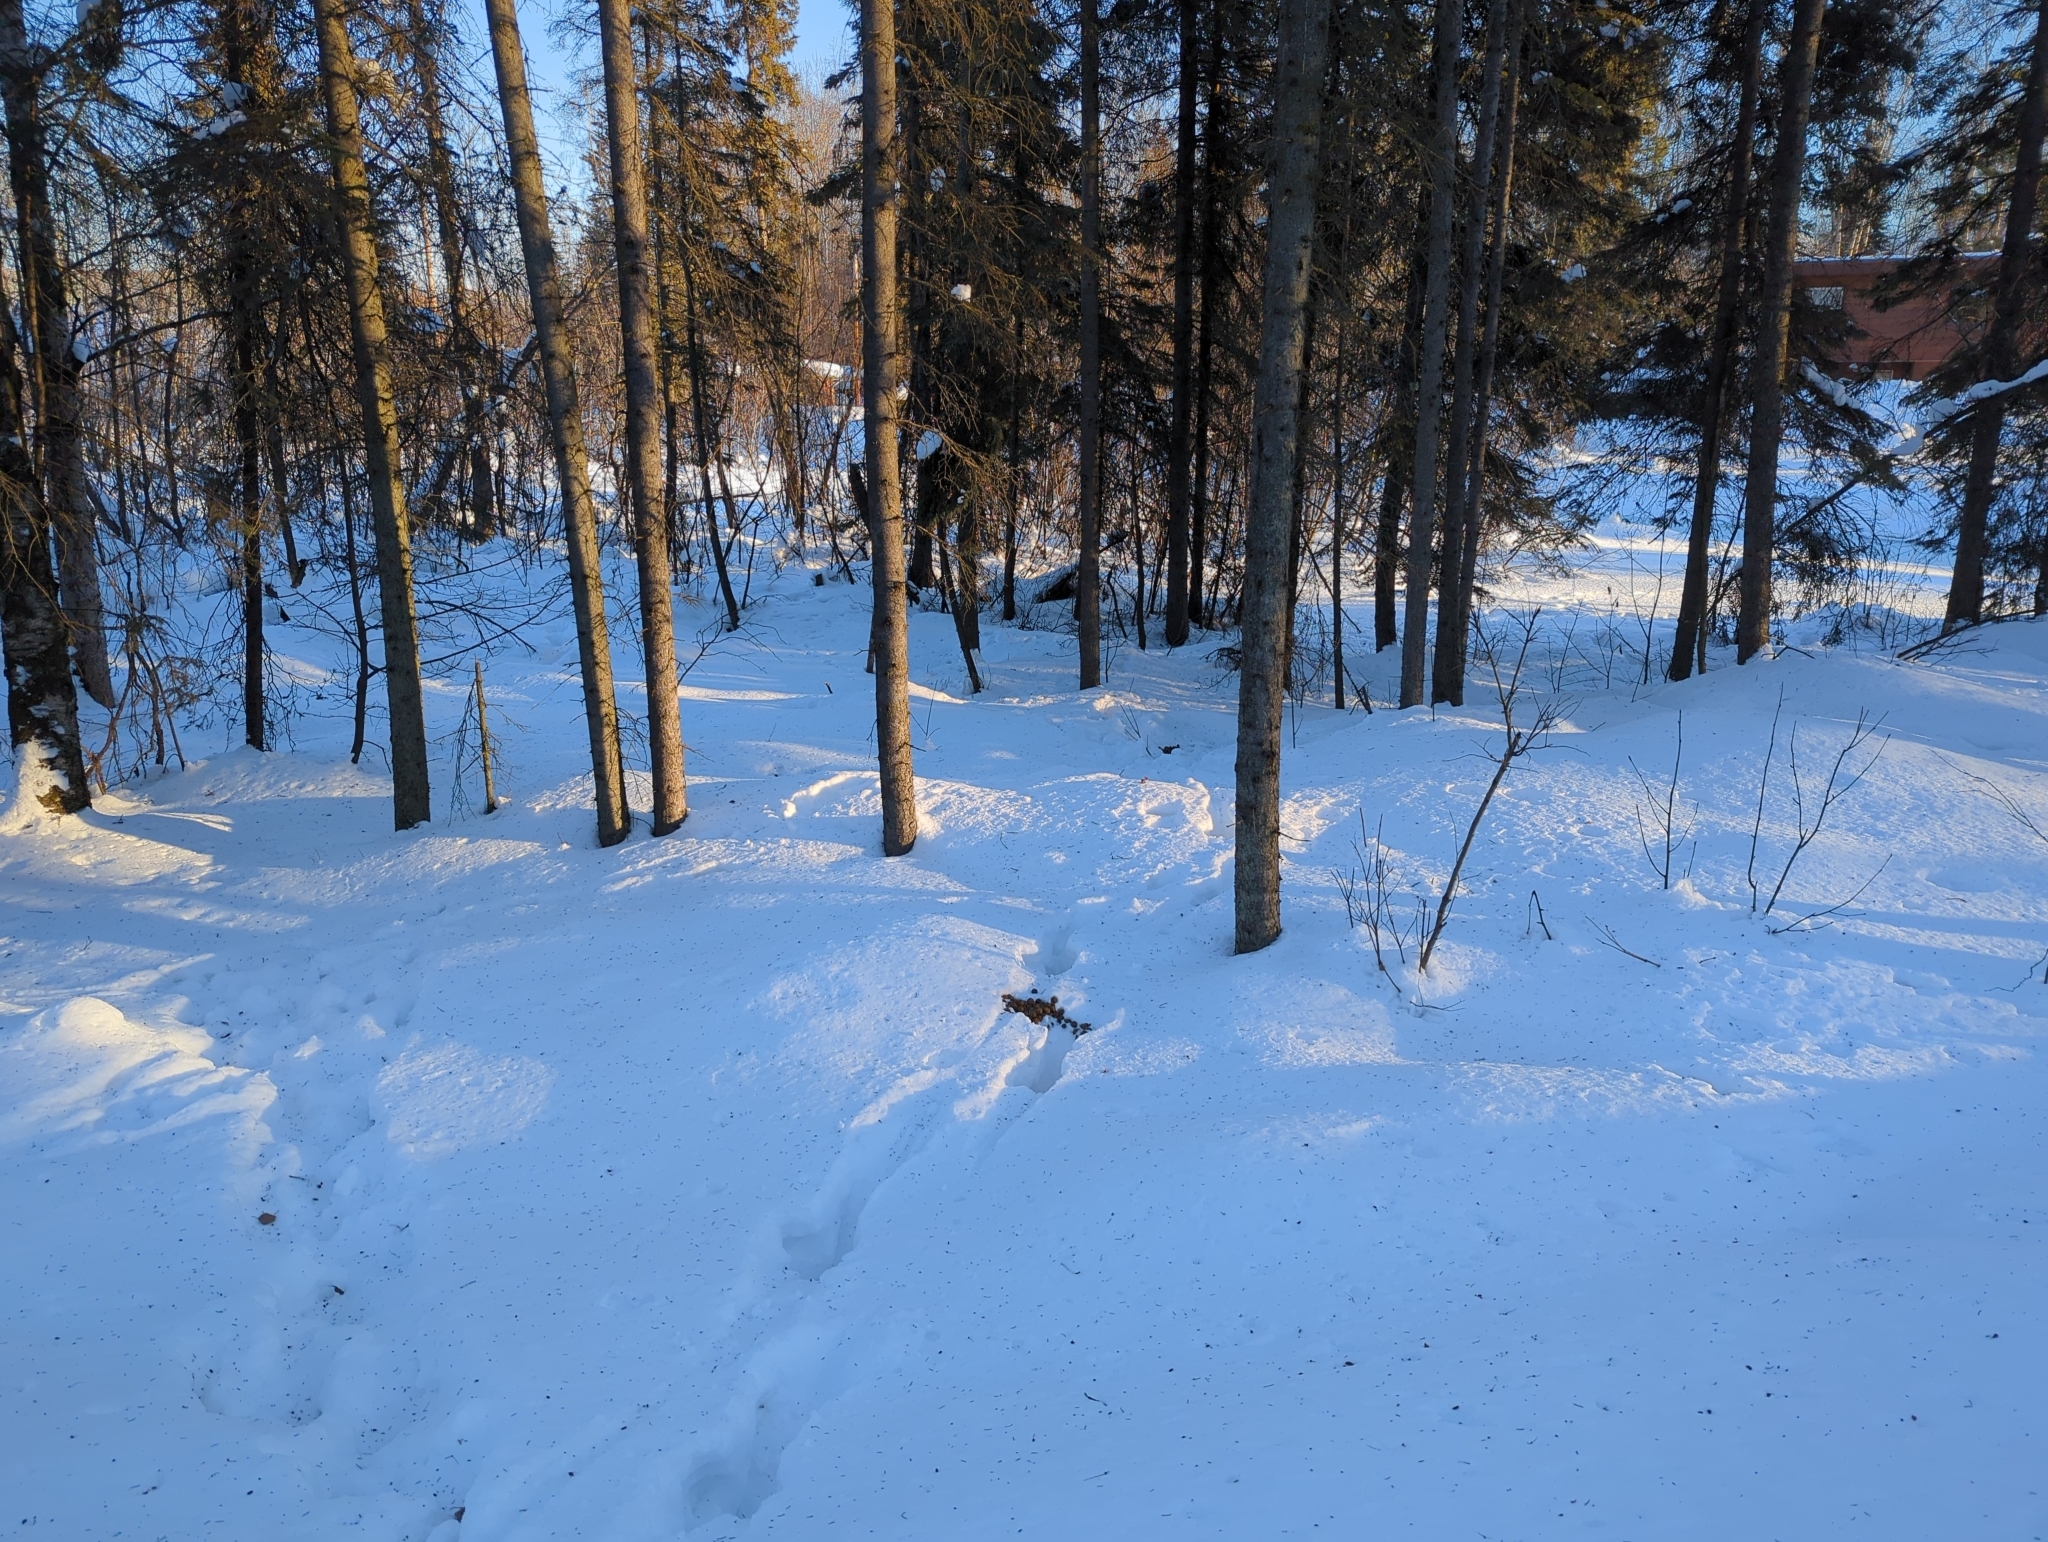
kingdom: Animalia
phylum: Chordata
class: Mammalia
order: Artiodactyla
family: Cervidae
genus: Alces
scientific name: Alces alces
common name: Moose
